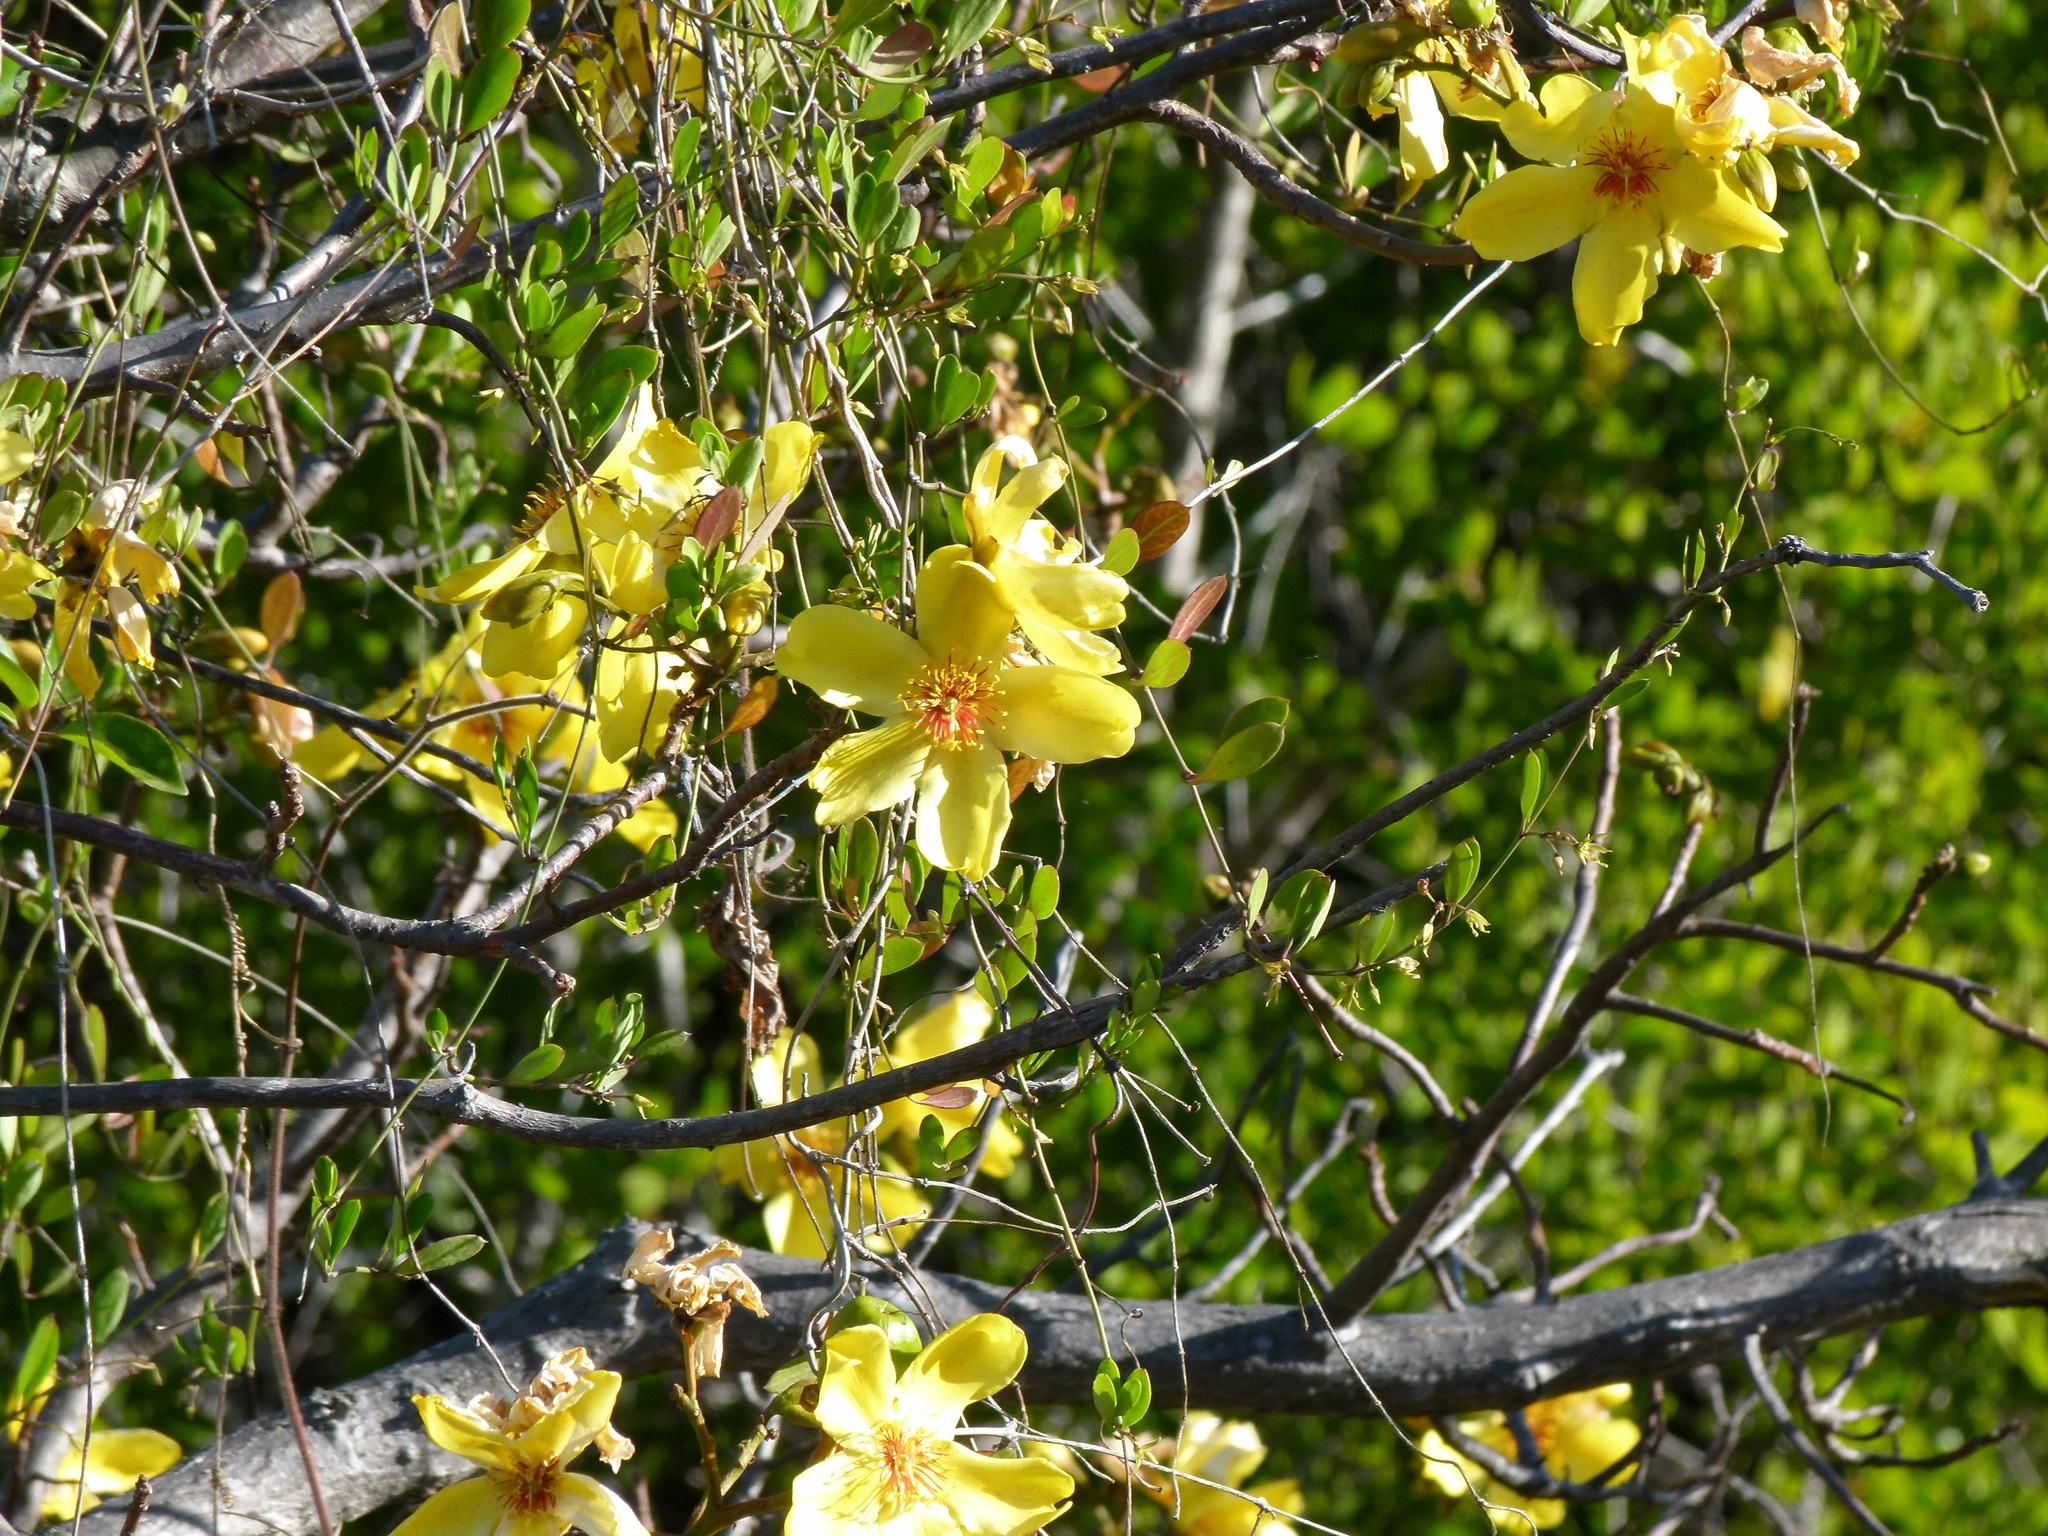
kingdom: Plantae
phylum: Tracheophyta
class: Magnoliopsida
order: Malvales
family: Cochlospermaceae
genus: Cochlospermum
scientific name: Cochlospermum gillivraei
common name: Cottontree
